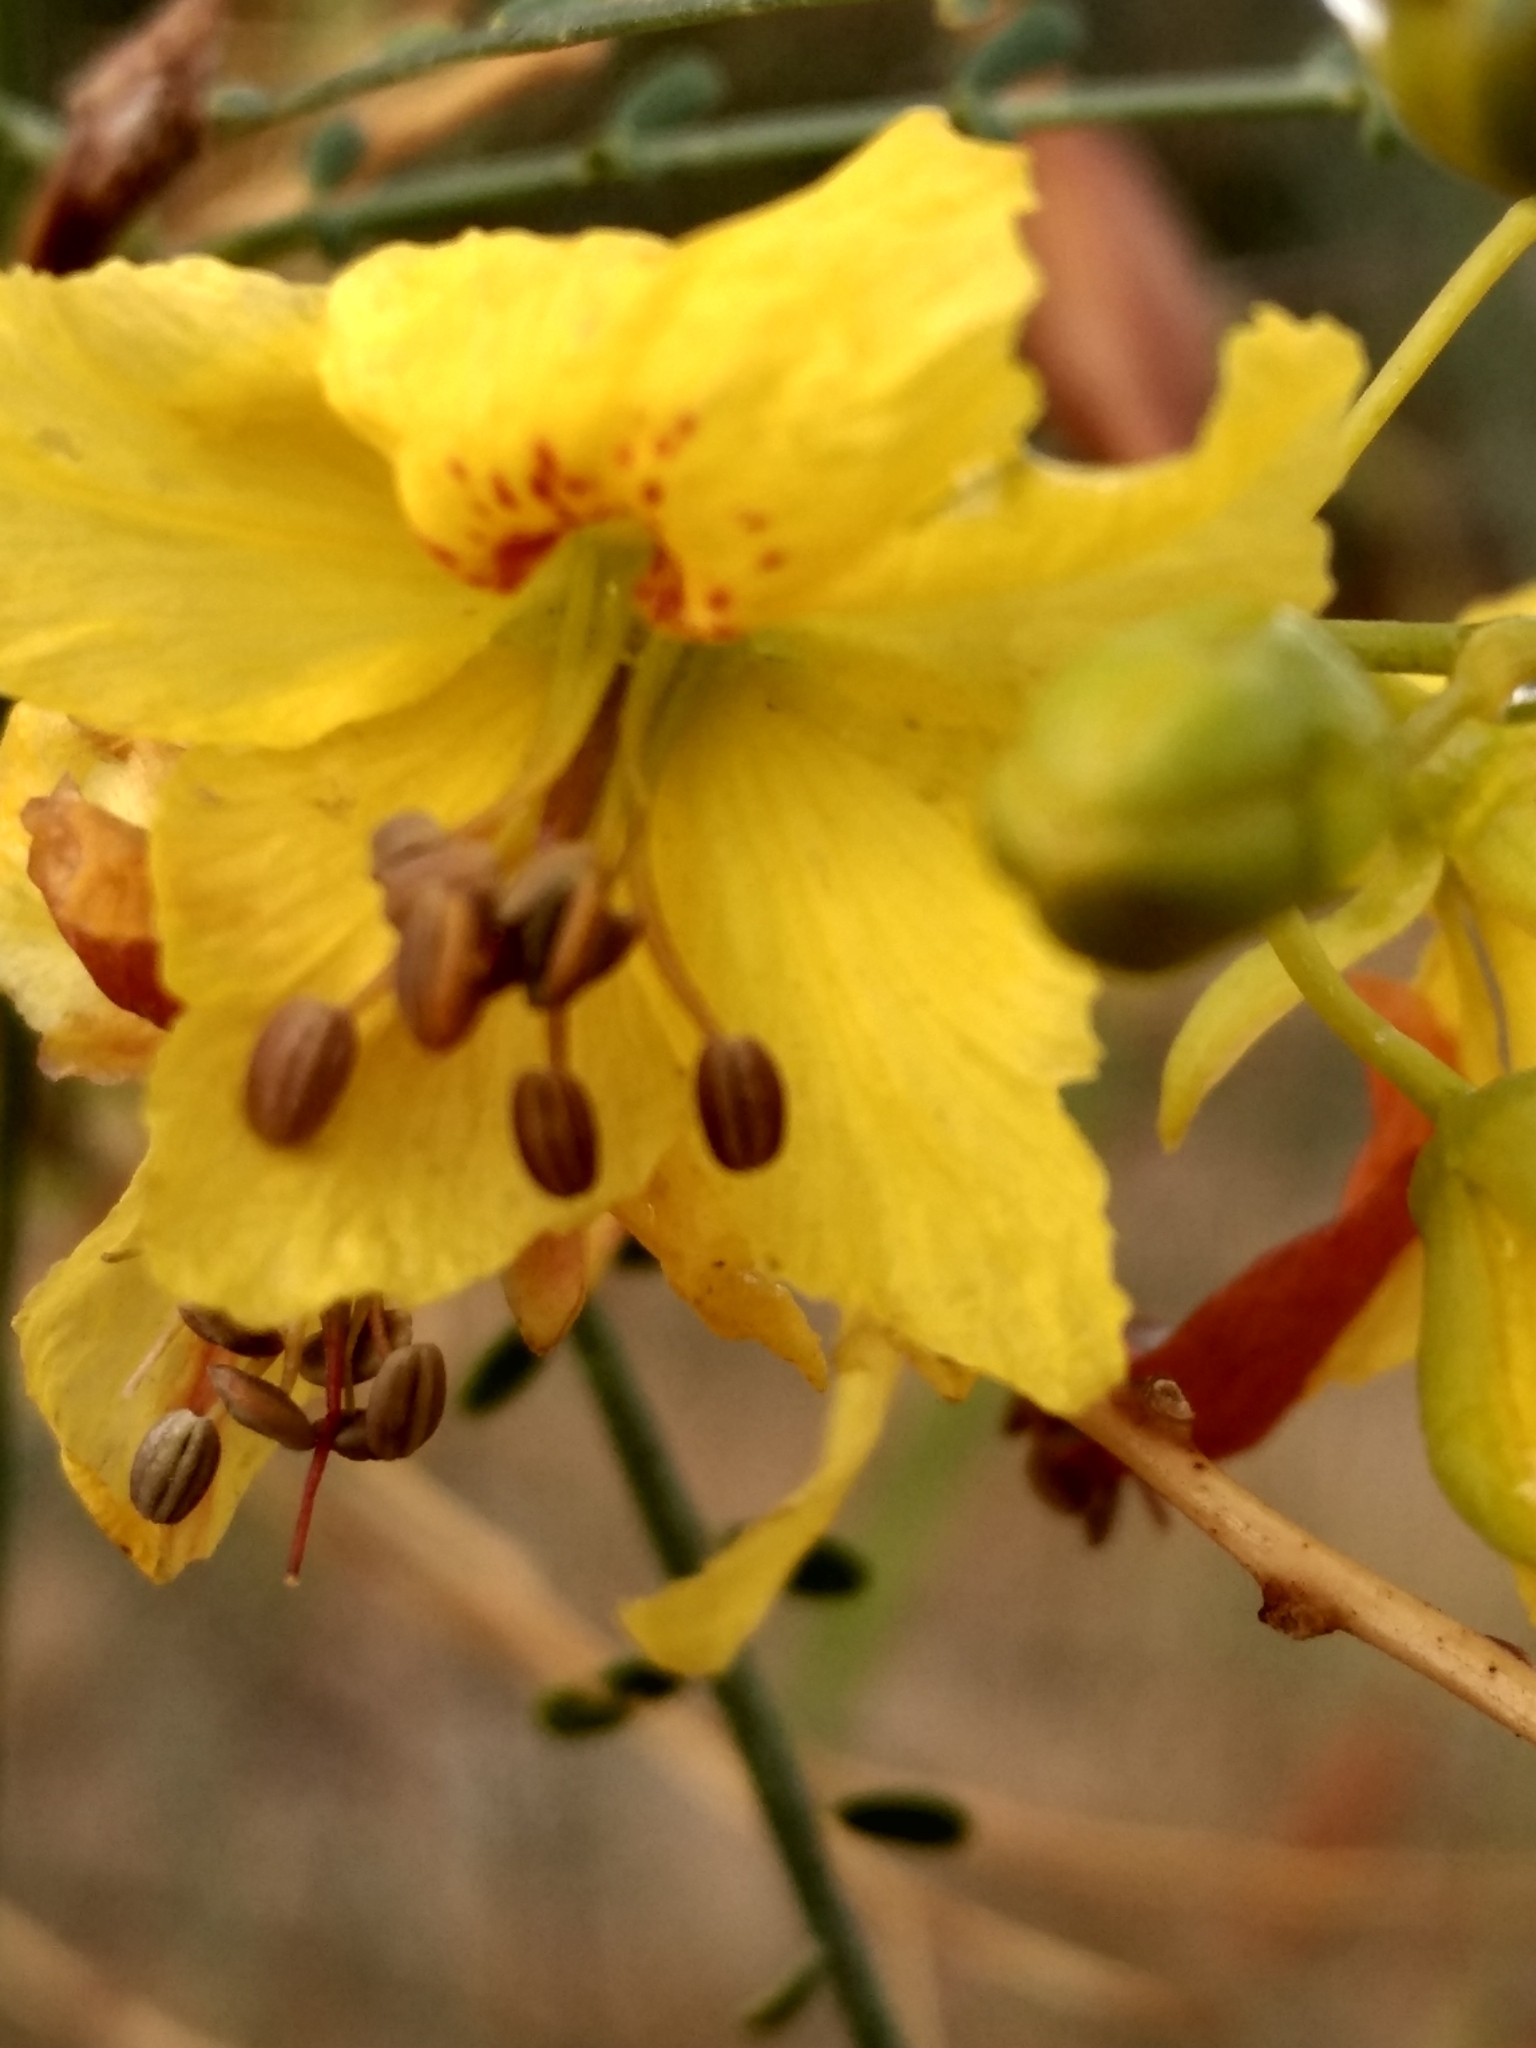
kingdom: Plantae
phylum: Tracheophyta
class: Magnoliopsida
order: Fabales
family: Fabaceae
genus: Parkinsonia
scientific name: Parkinsonia aculeata
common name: Jerusalem thorn
